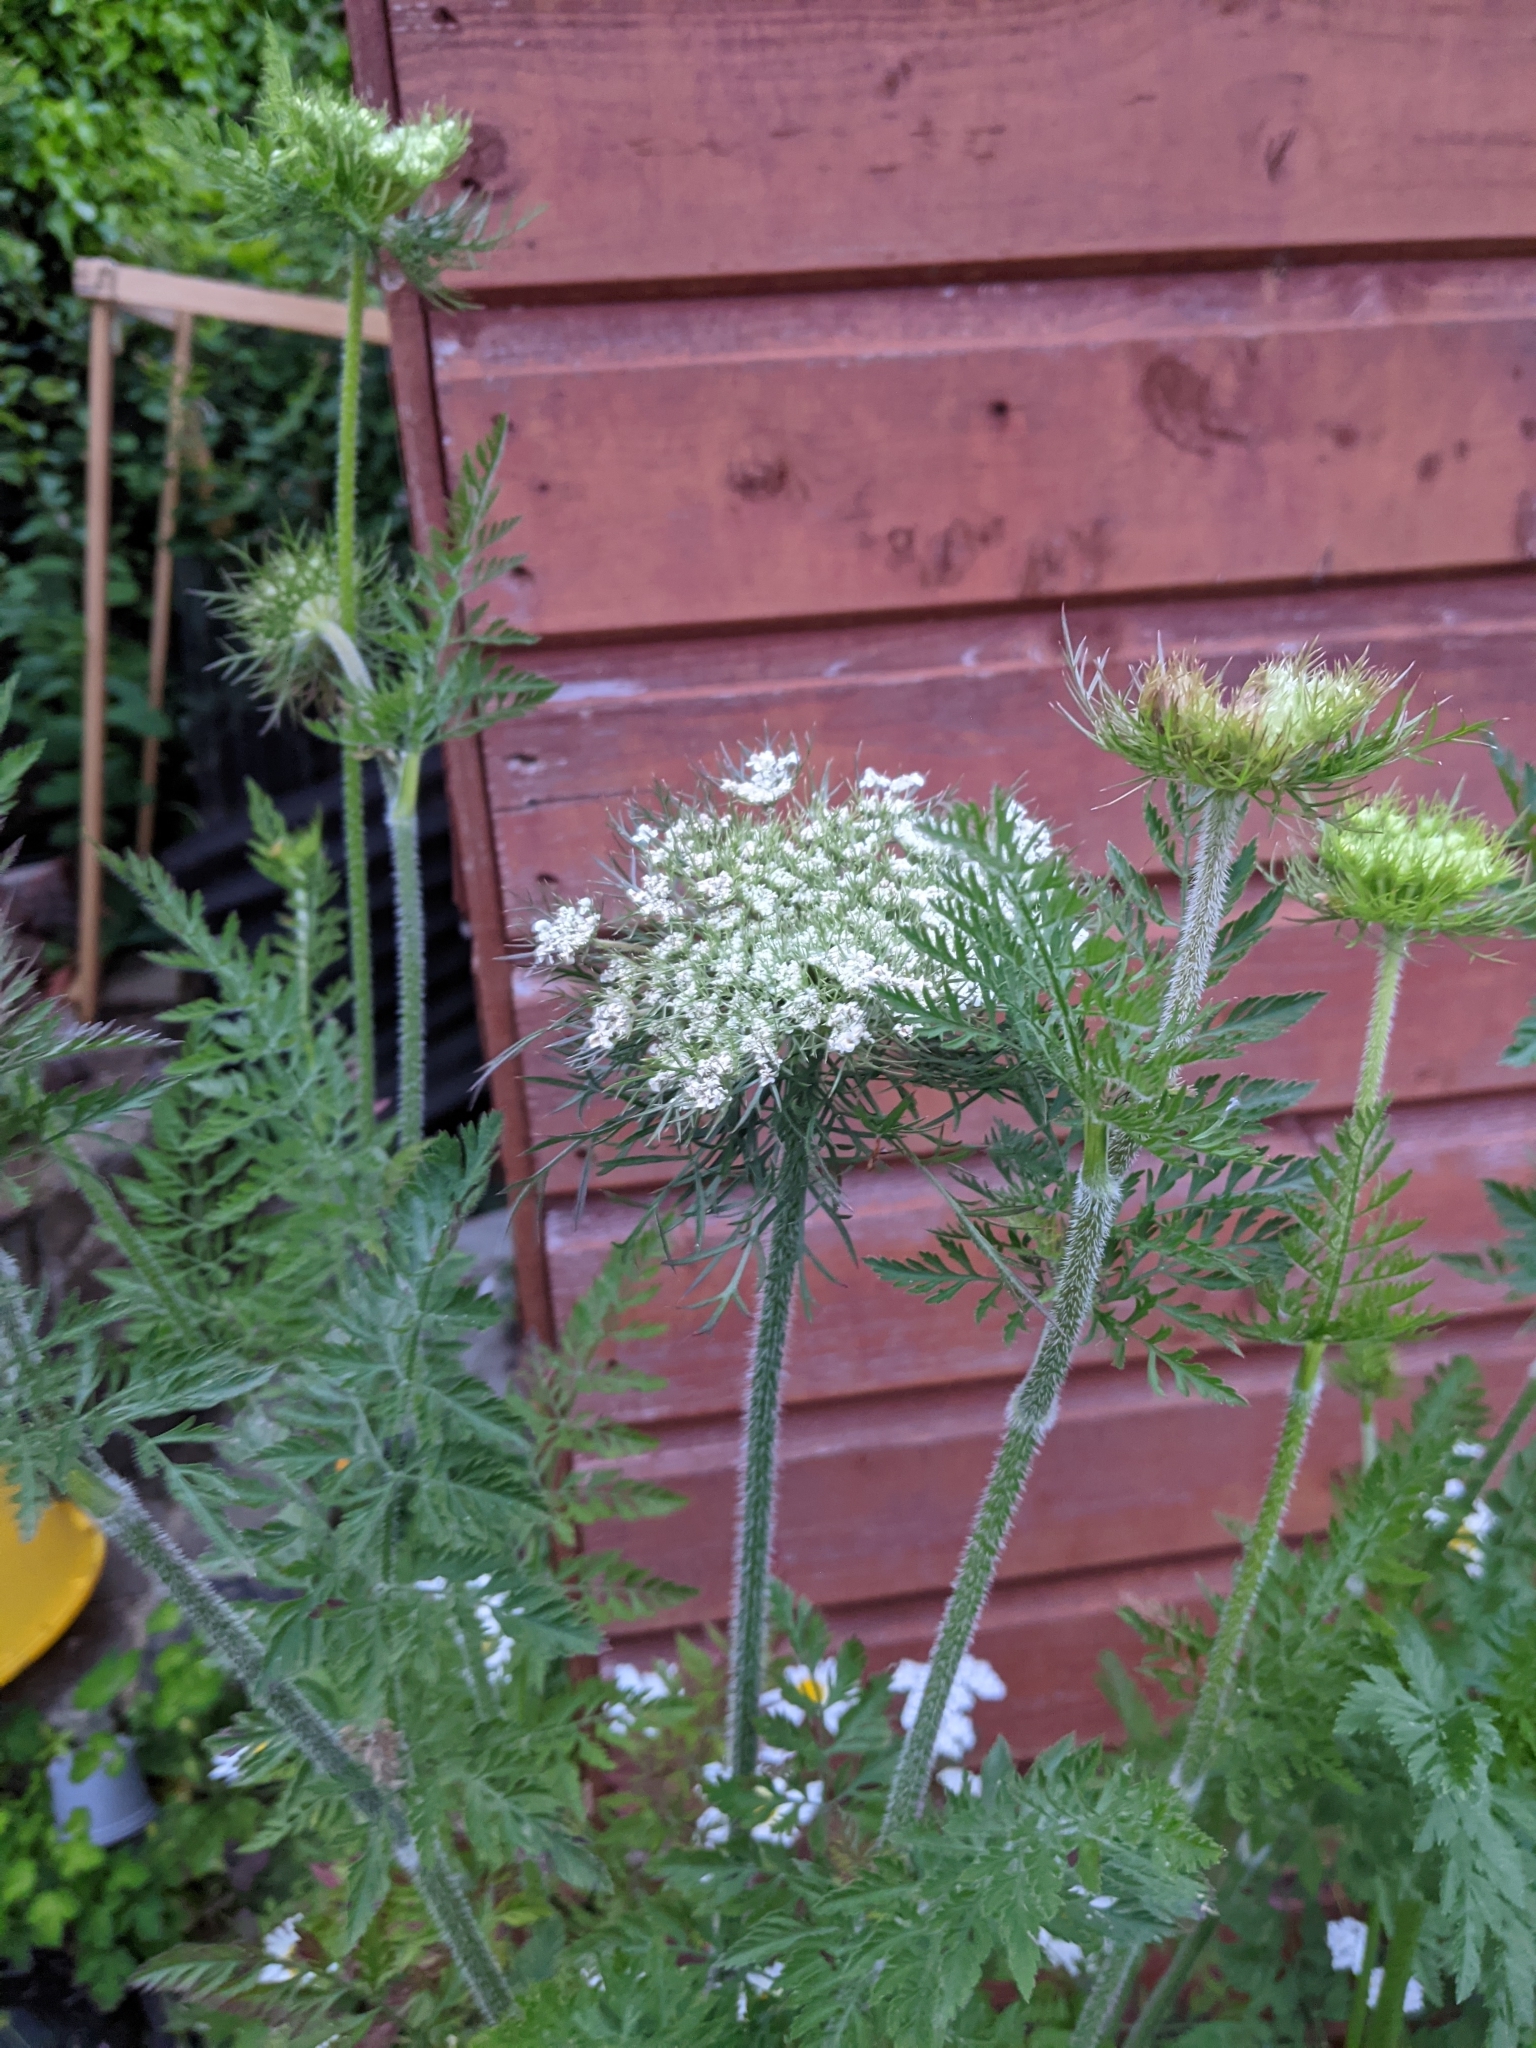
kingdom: Plantae
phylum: Tracheophyta
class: Magnoliopsida
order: Apiales
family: Apiaceae
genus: Daucus
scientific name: Daucus carota
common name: Wild carrot
